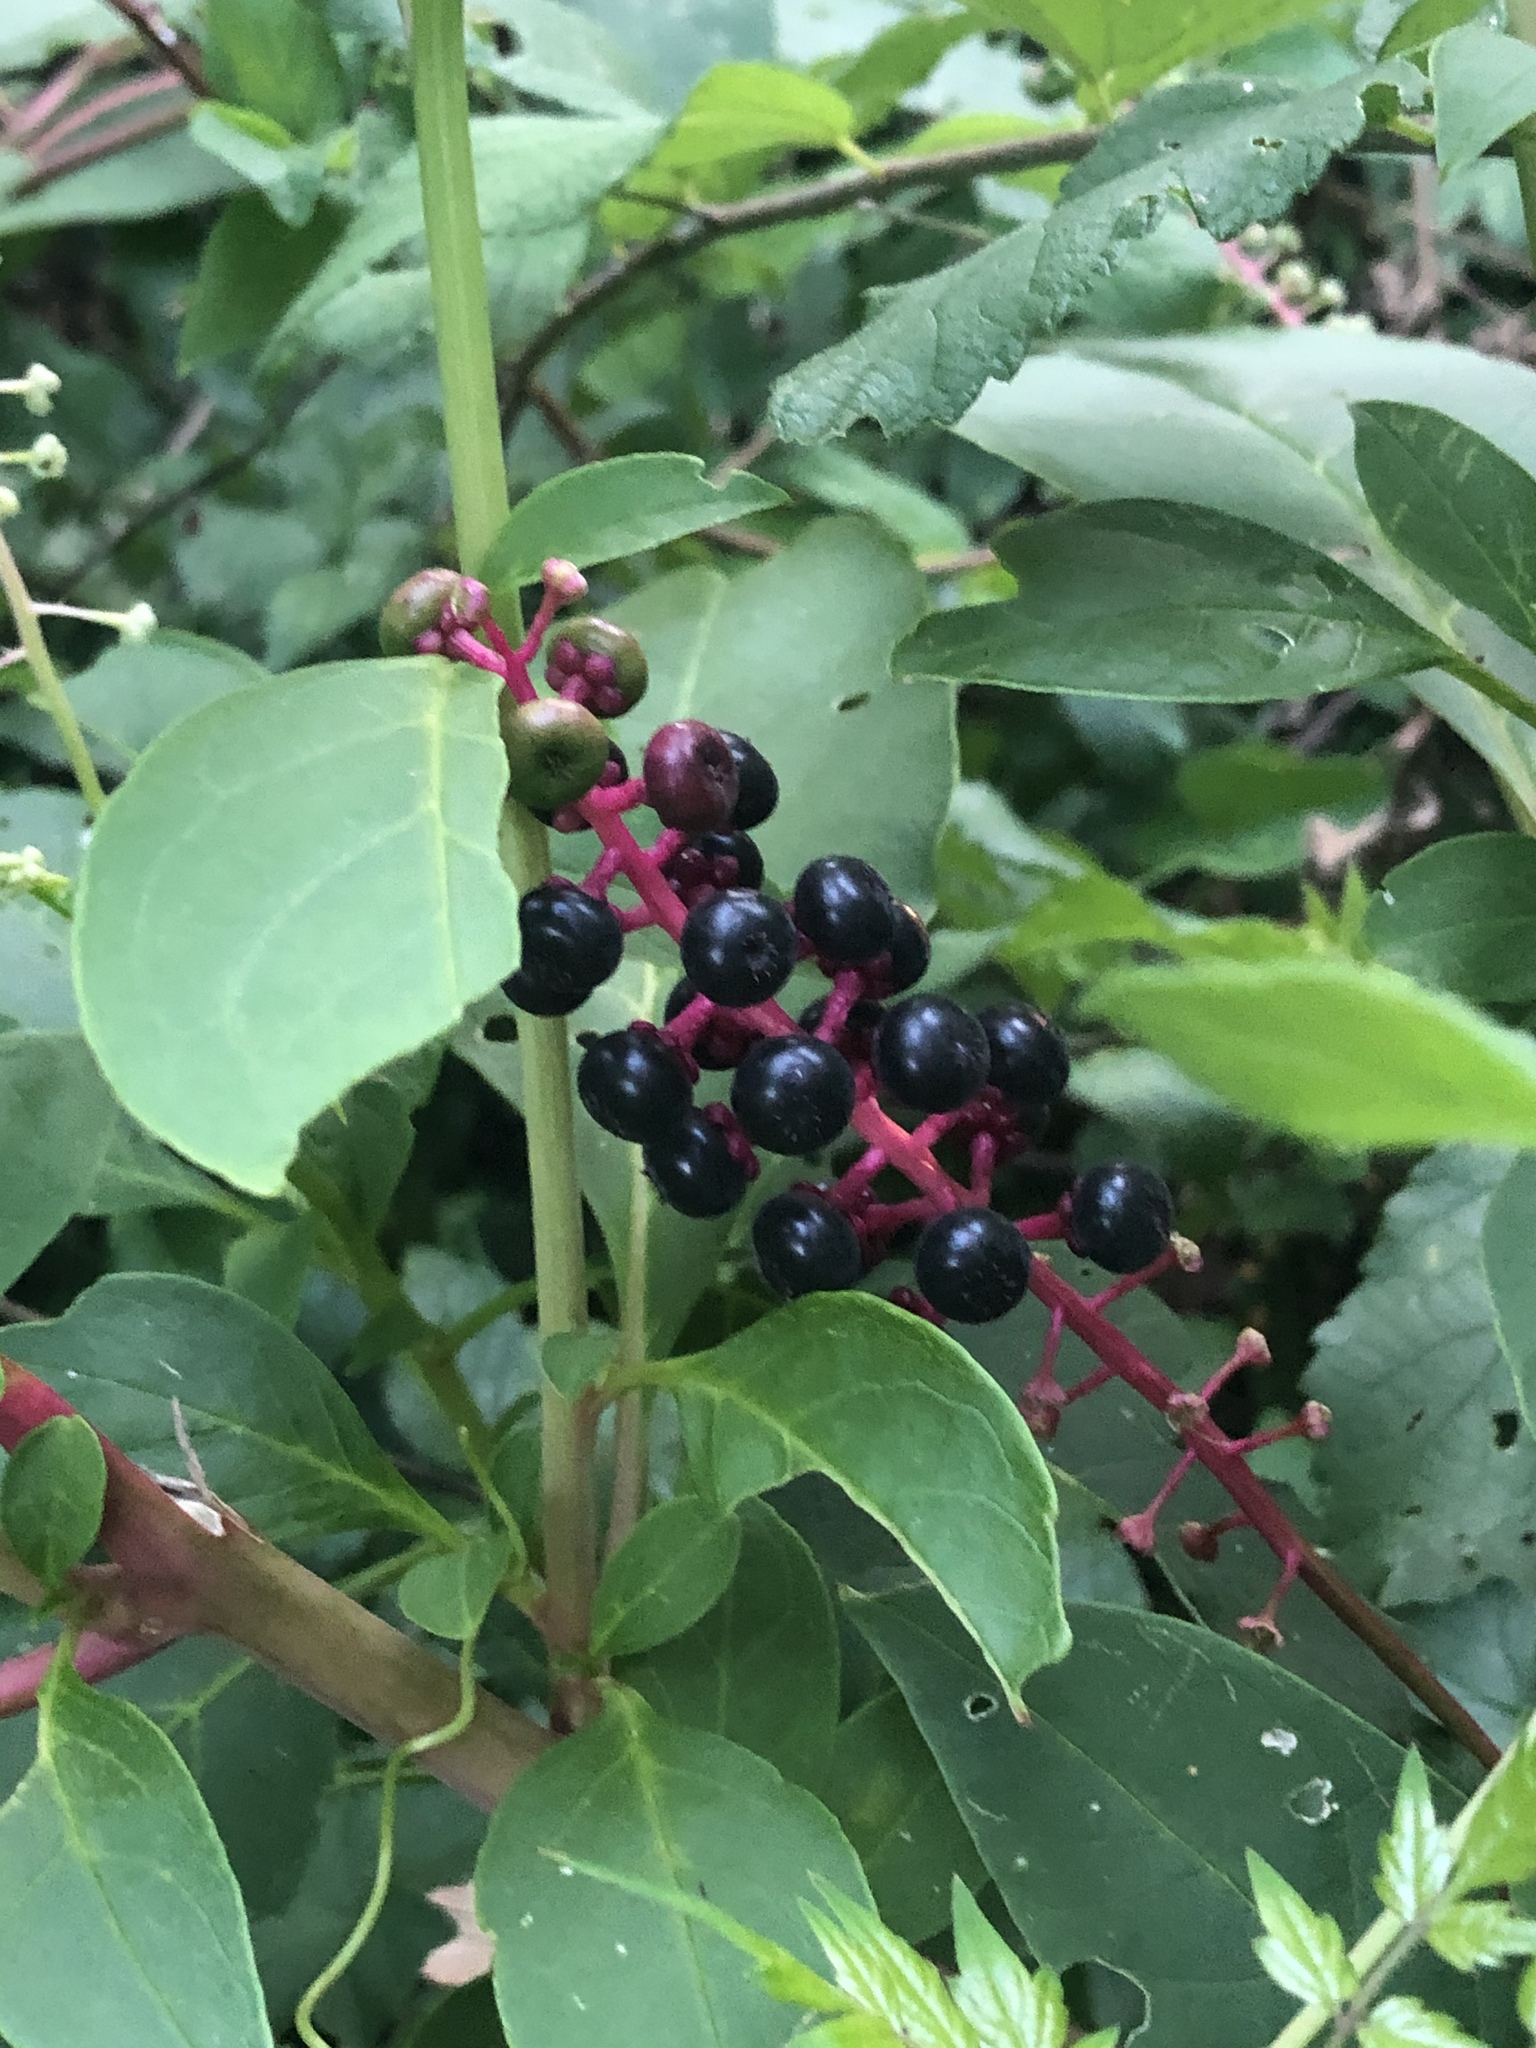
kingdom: Plantae
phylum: Tracheophyta
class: Magnoliopsida
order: Caryophyllales
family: Phytolaccaceae
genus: Phytolacca
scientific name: Phytolacca americana
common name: American pokeweed
